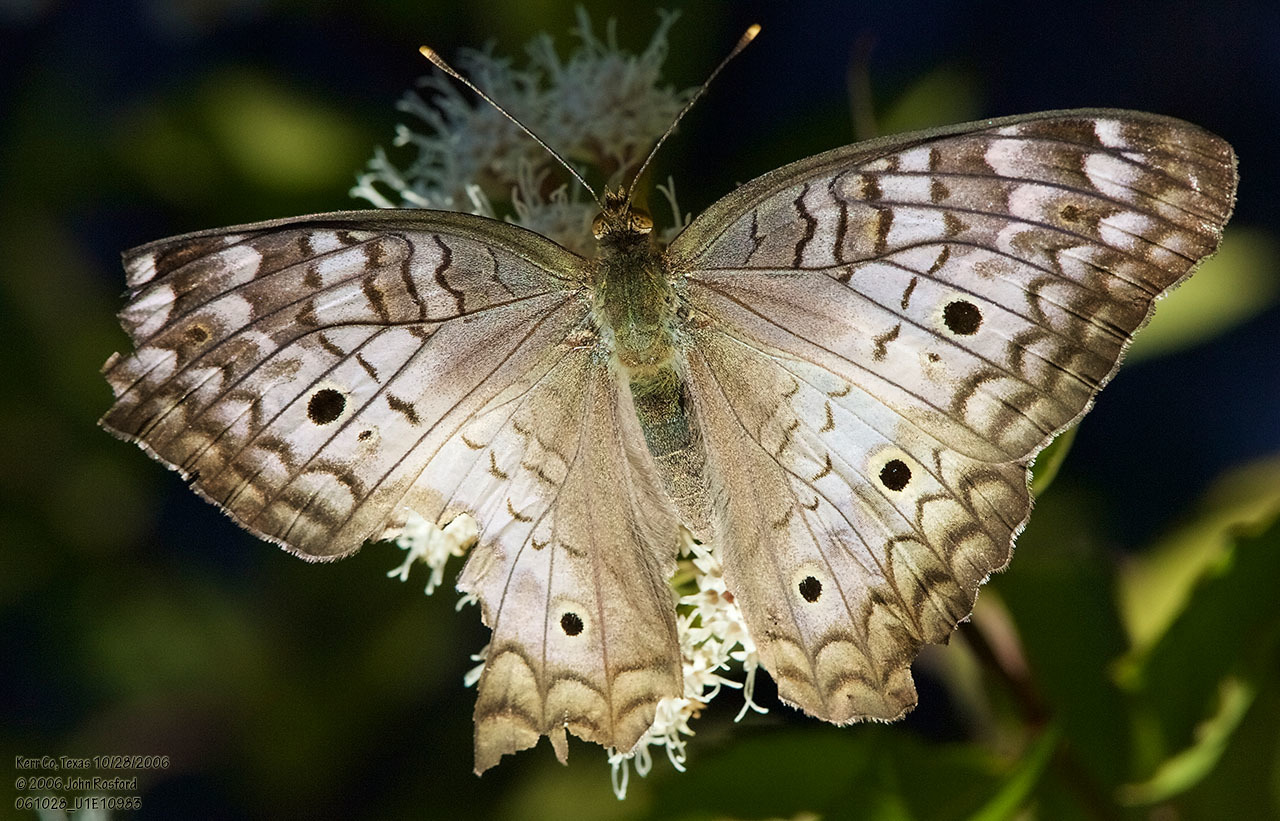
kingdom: Animalia
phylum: Arthropoda
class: Insecta
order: Lepidoptera
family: Nymphalidae
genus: Anartia
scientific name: Anartia jatrophae
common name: White peacock
